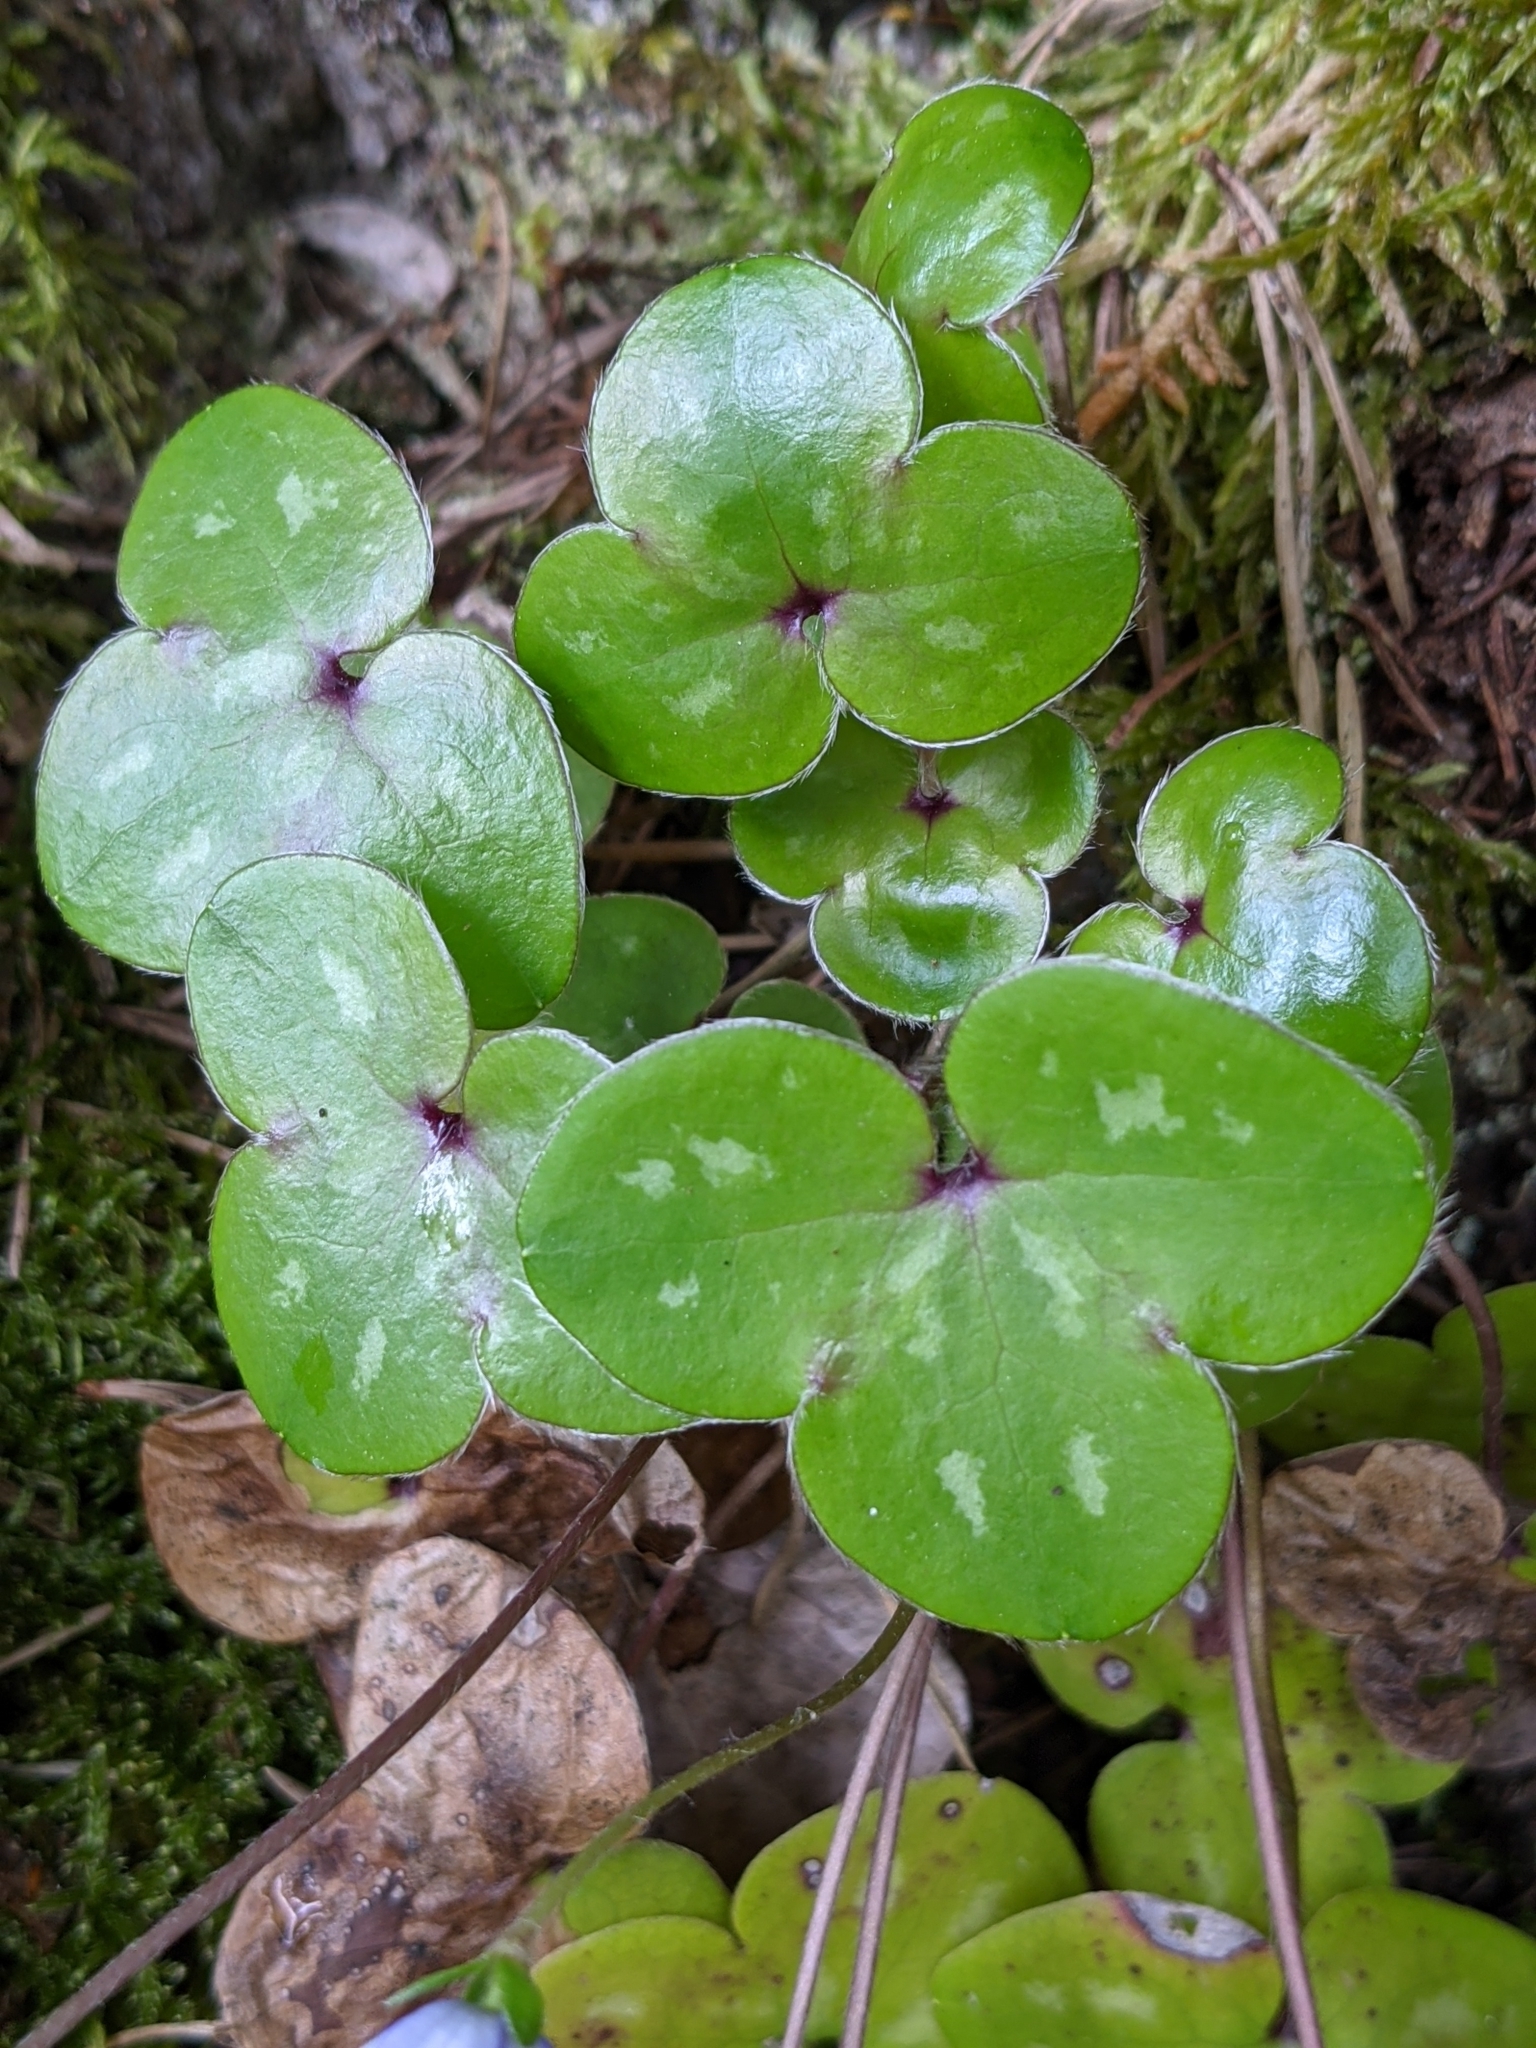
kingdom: Plantae
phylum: Tracheophyta
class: Magnoliopsida
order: Ranunculales
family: Ranunculaceae
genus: Hepatica
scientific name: Hepatica nobilis
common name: Liverleaf
